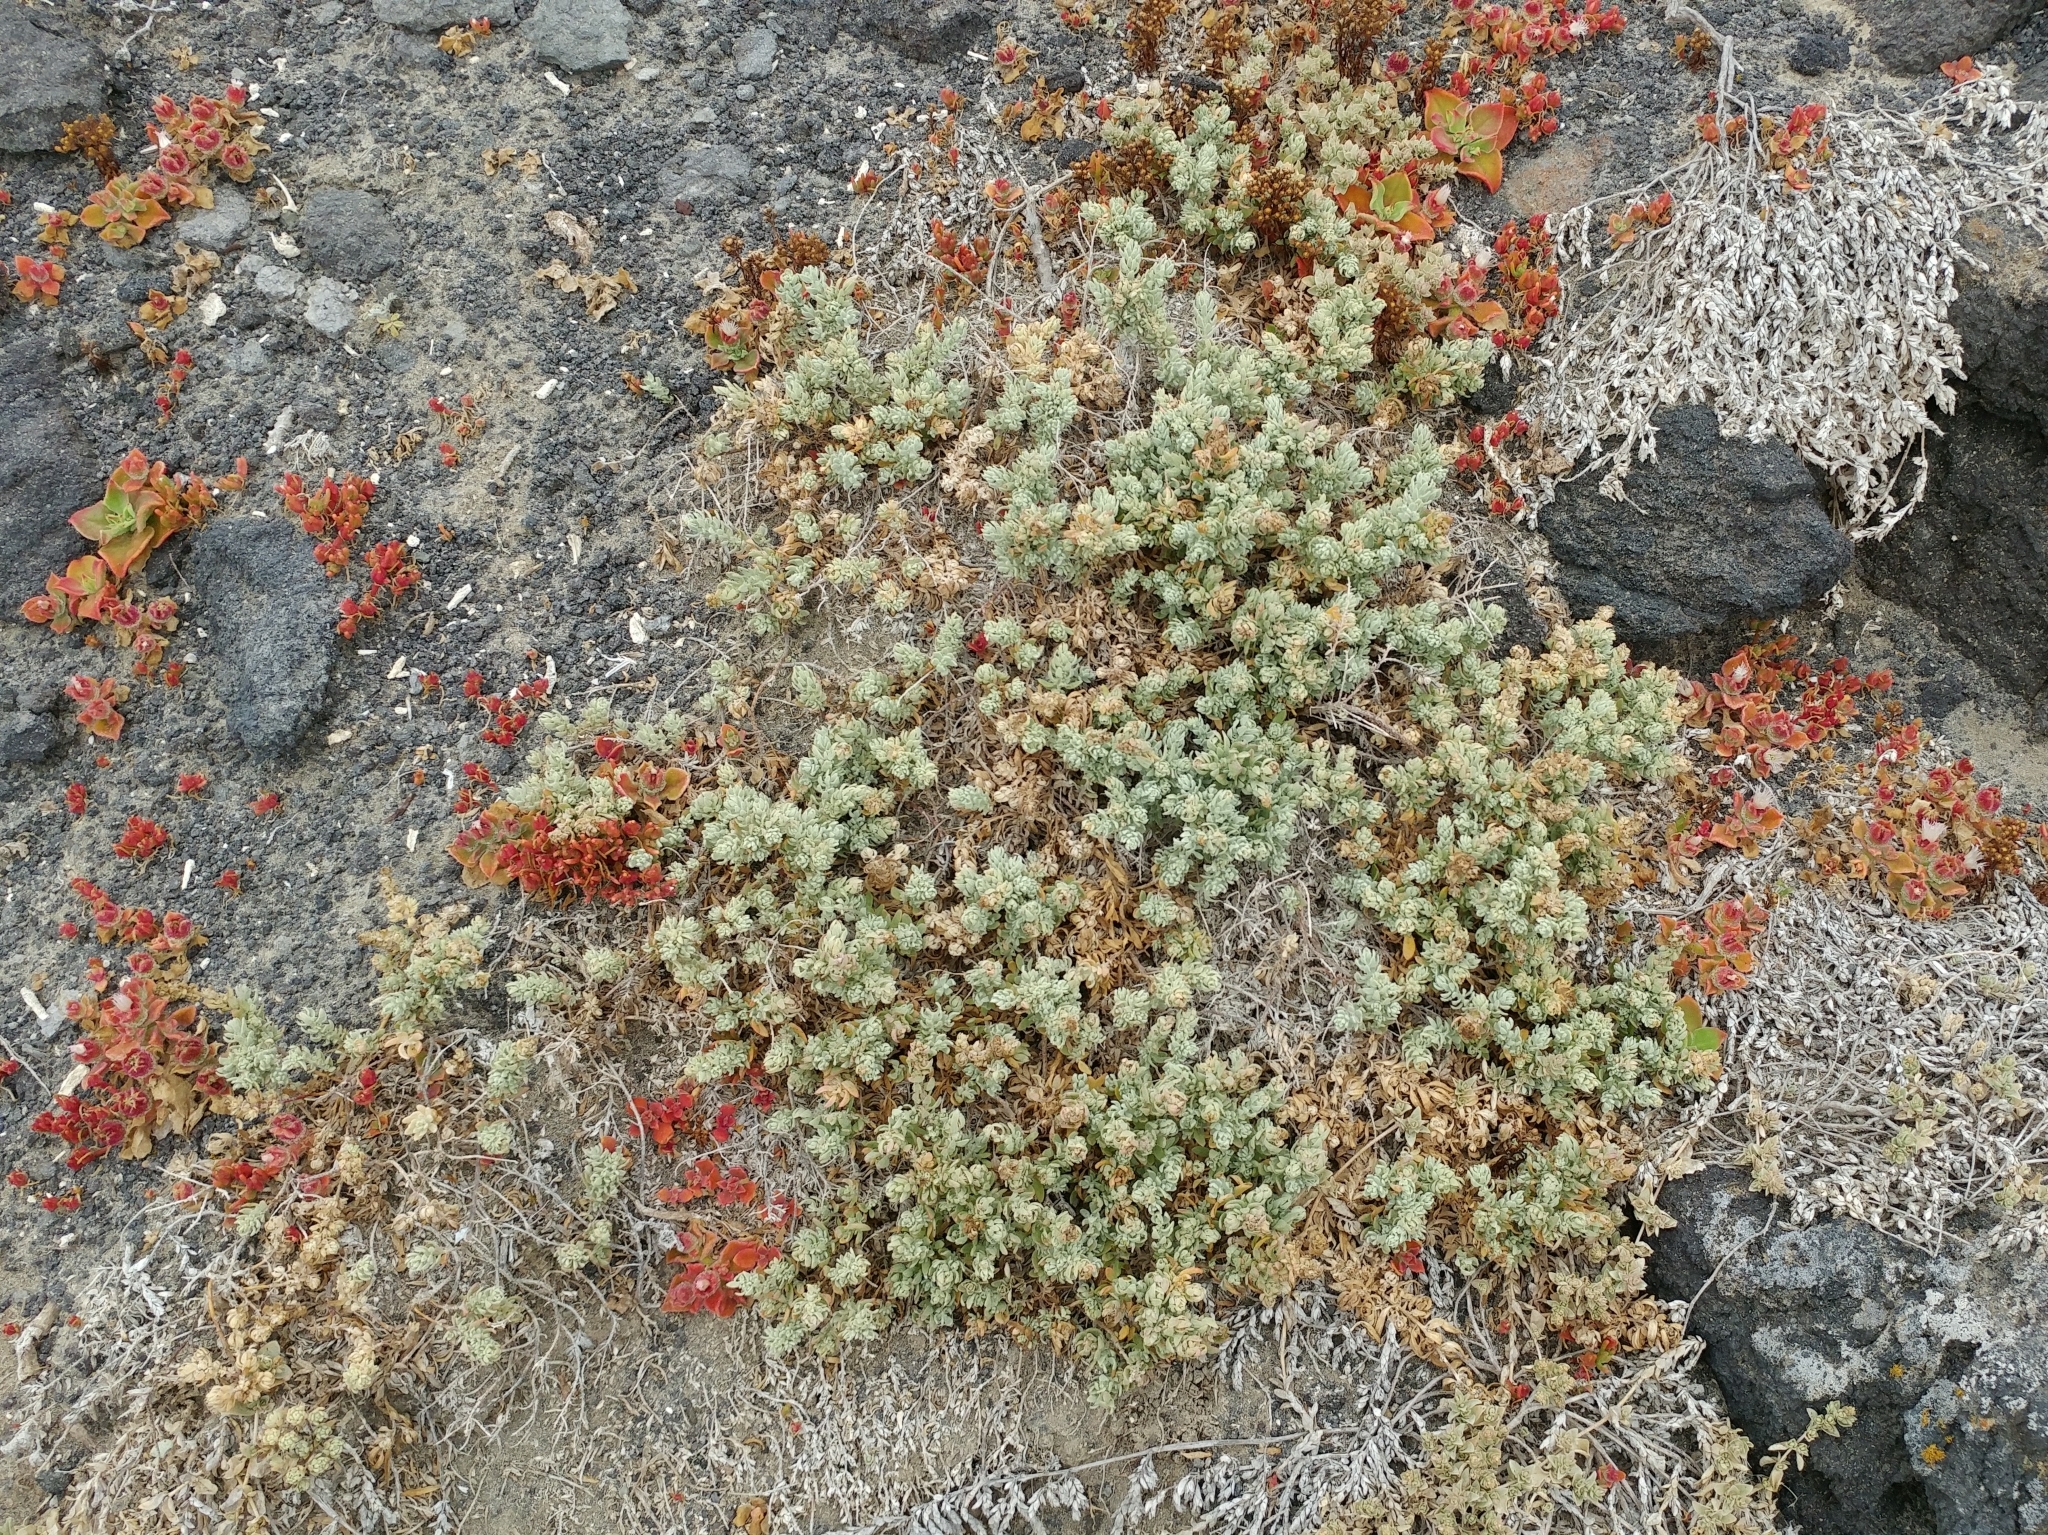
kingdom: Plantae
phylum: Tracheophyta
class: Magnoliopsida
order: Caryophyllales
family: Amaranthaceae
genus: Extriplex
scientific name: Extriplex californica
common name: California saltbush
